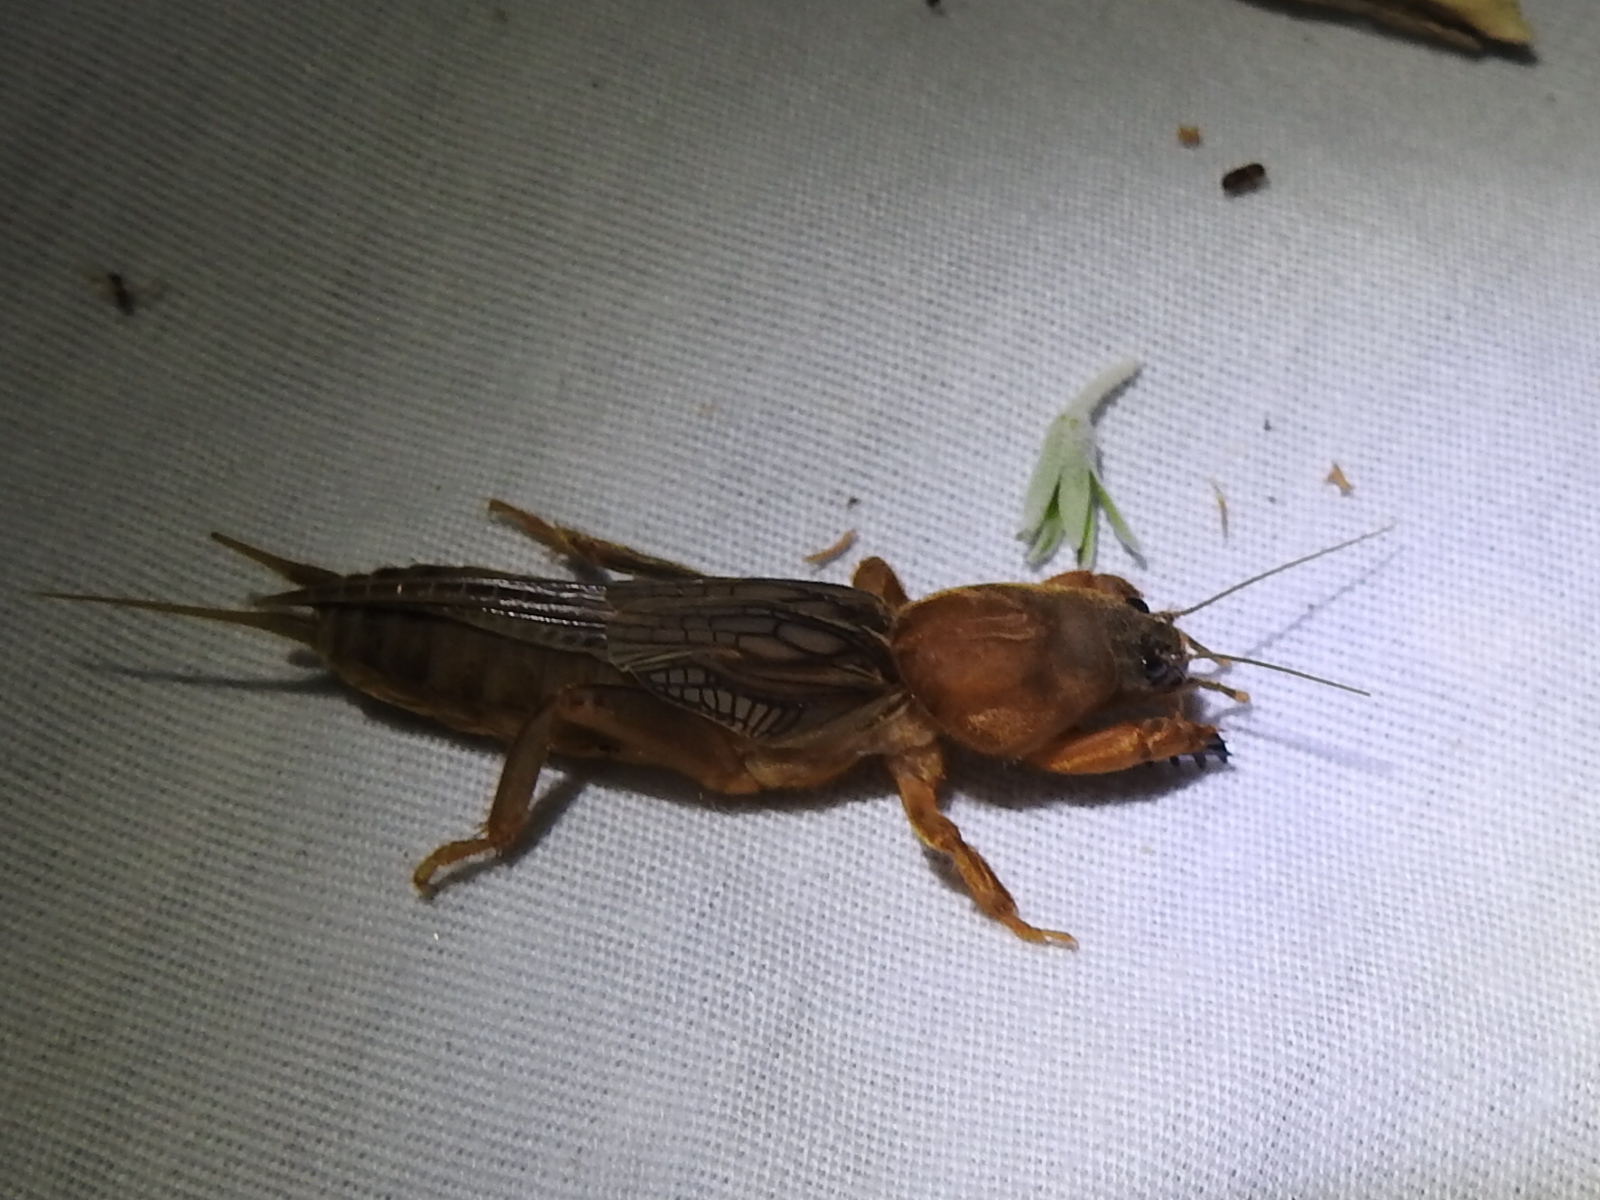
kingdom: Animalia
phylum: Arthropoda
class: Insecta
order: Orthoptera
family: Gryllotalpidae
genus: Neocurtilla
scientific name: Neocurtilla hexadactyla
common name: Northern mole cricket
